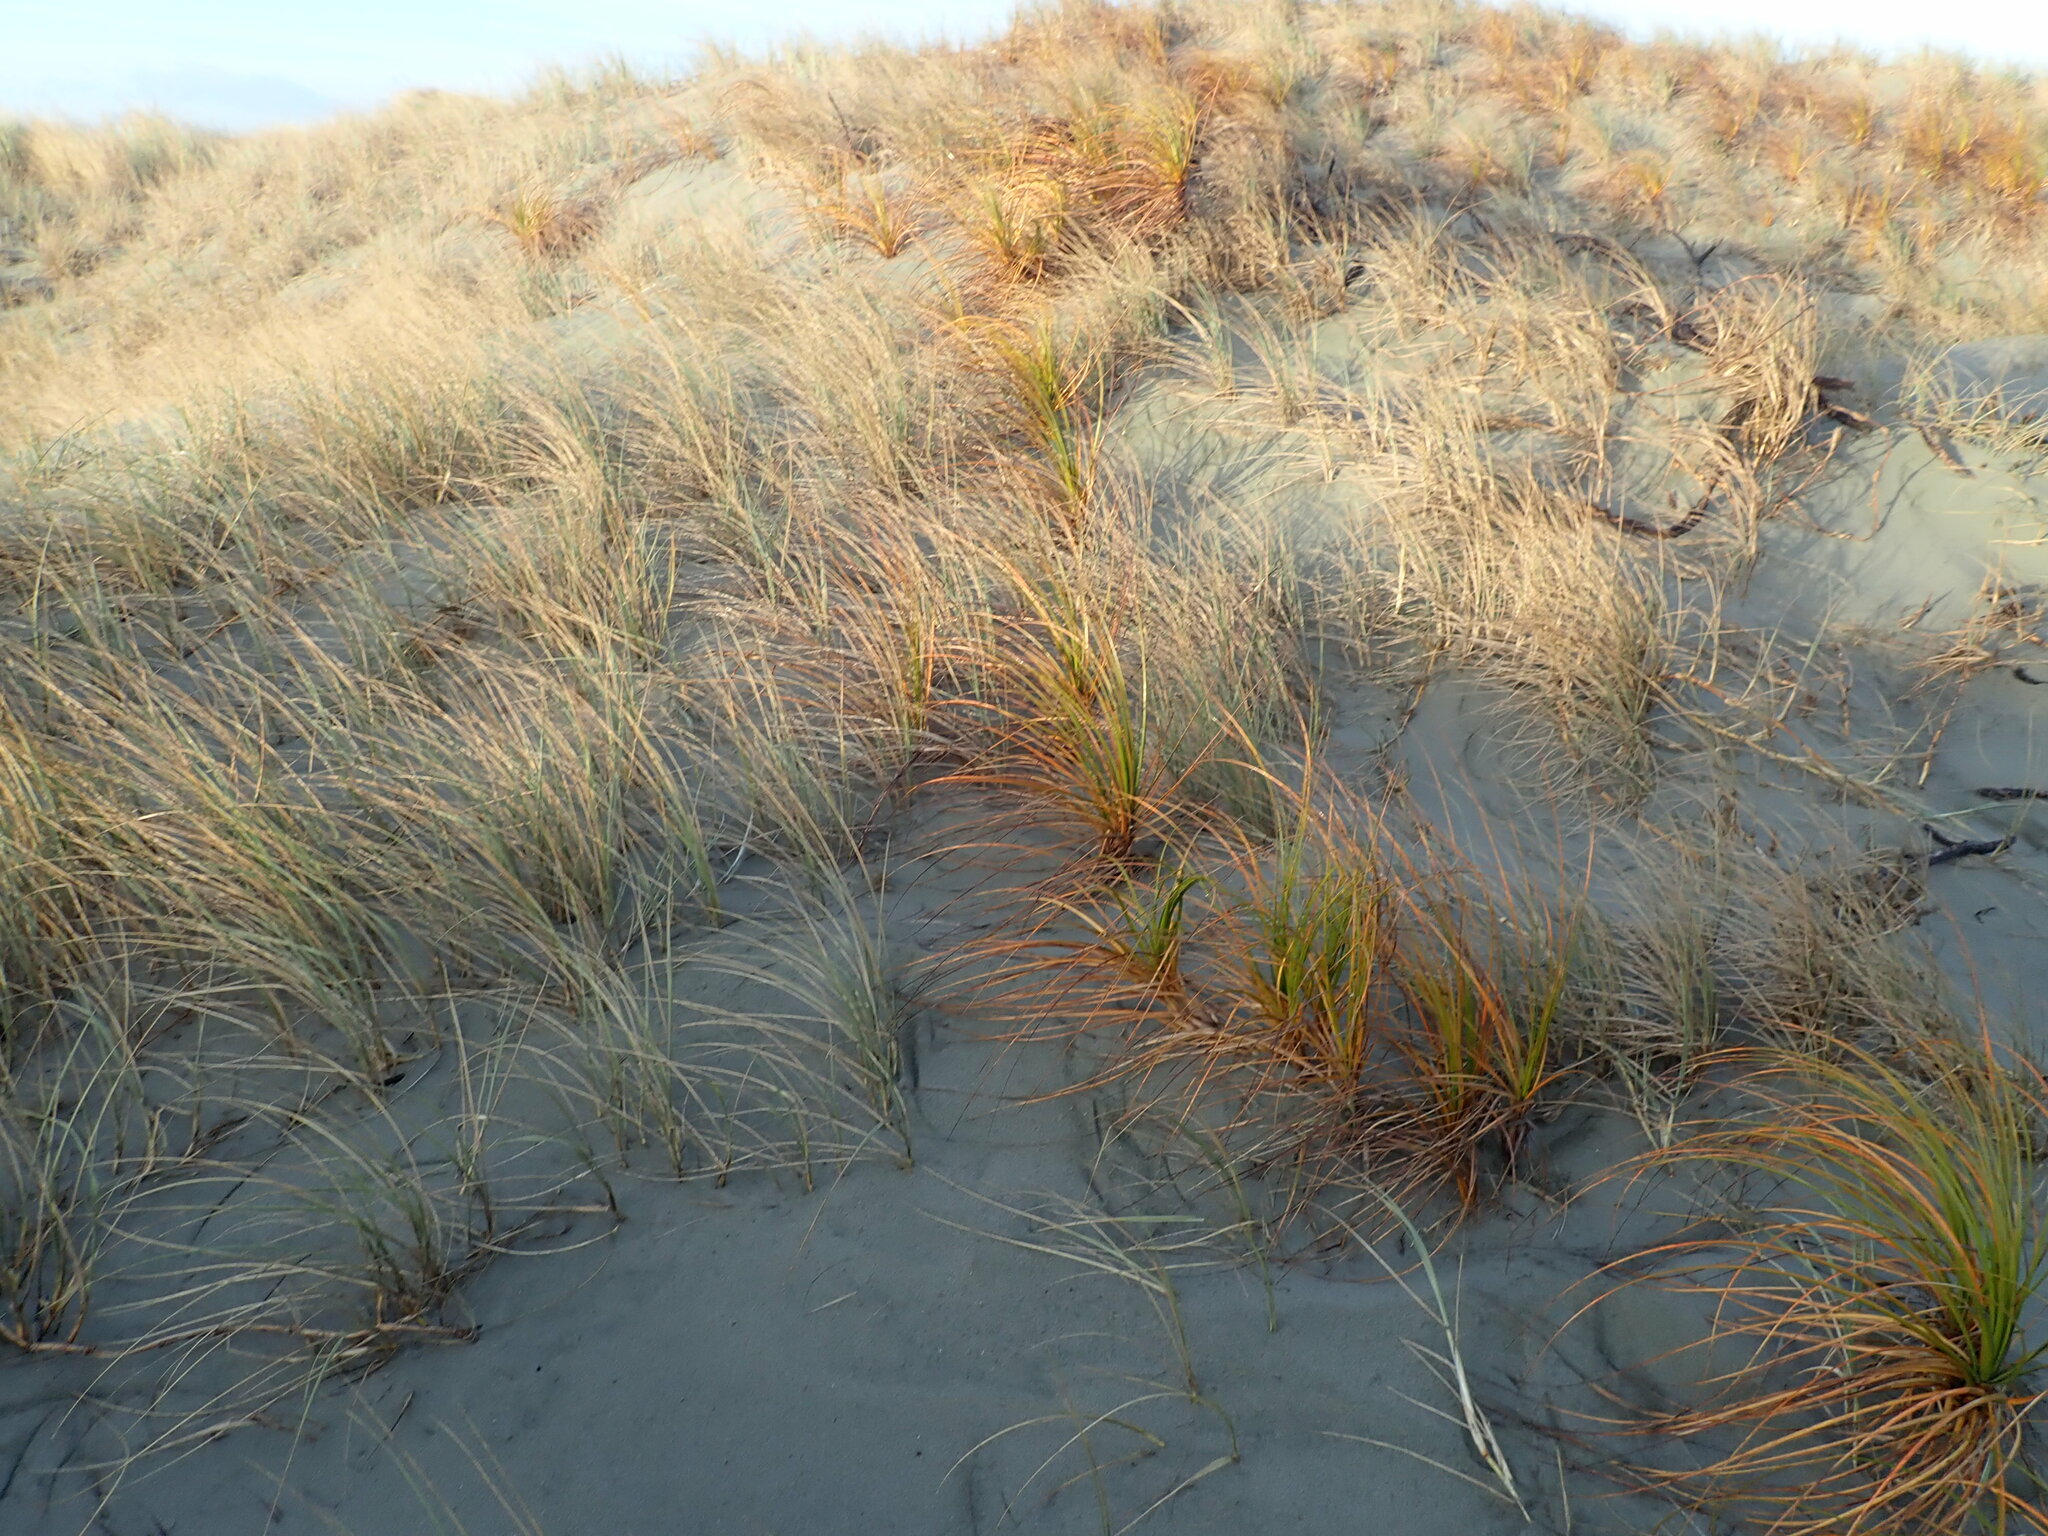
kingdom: Plantae
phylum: Tracheophyta
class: Liliopsida
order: Poales
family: Cyperaceae
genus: Ficinia
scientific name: Ficinia spiralis
